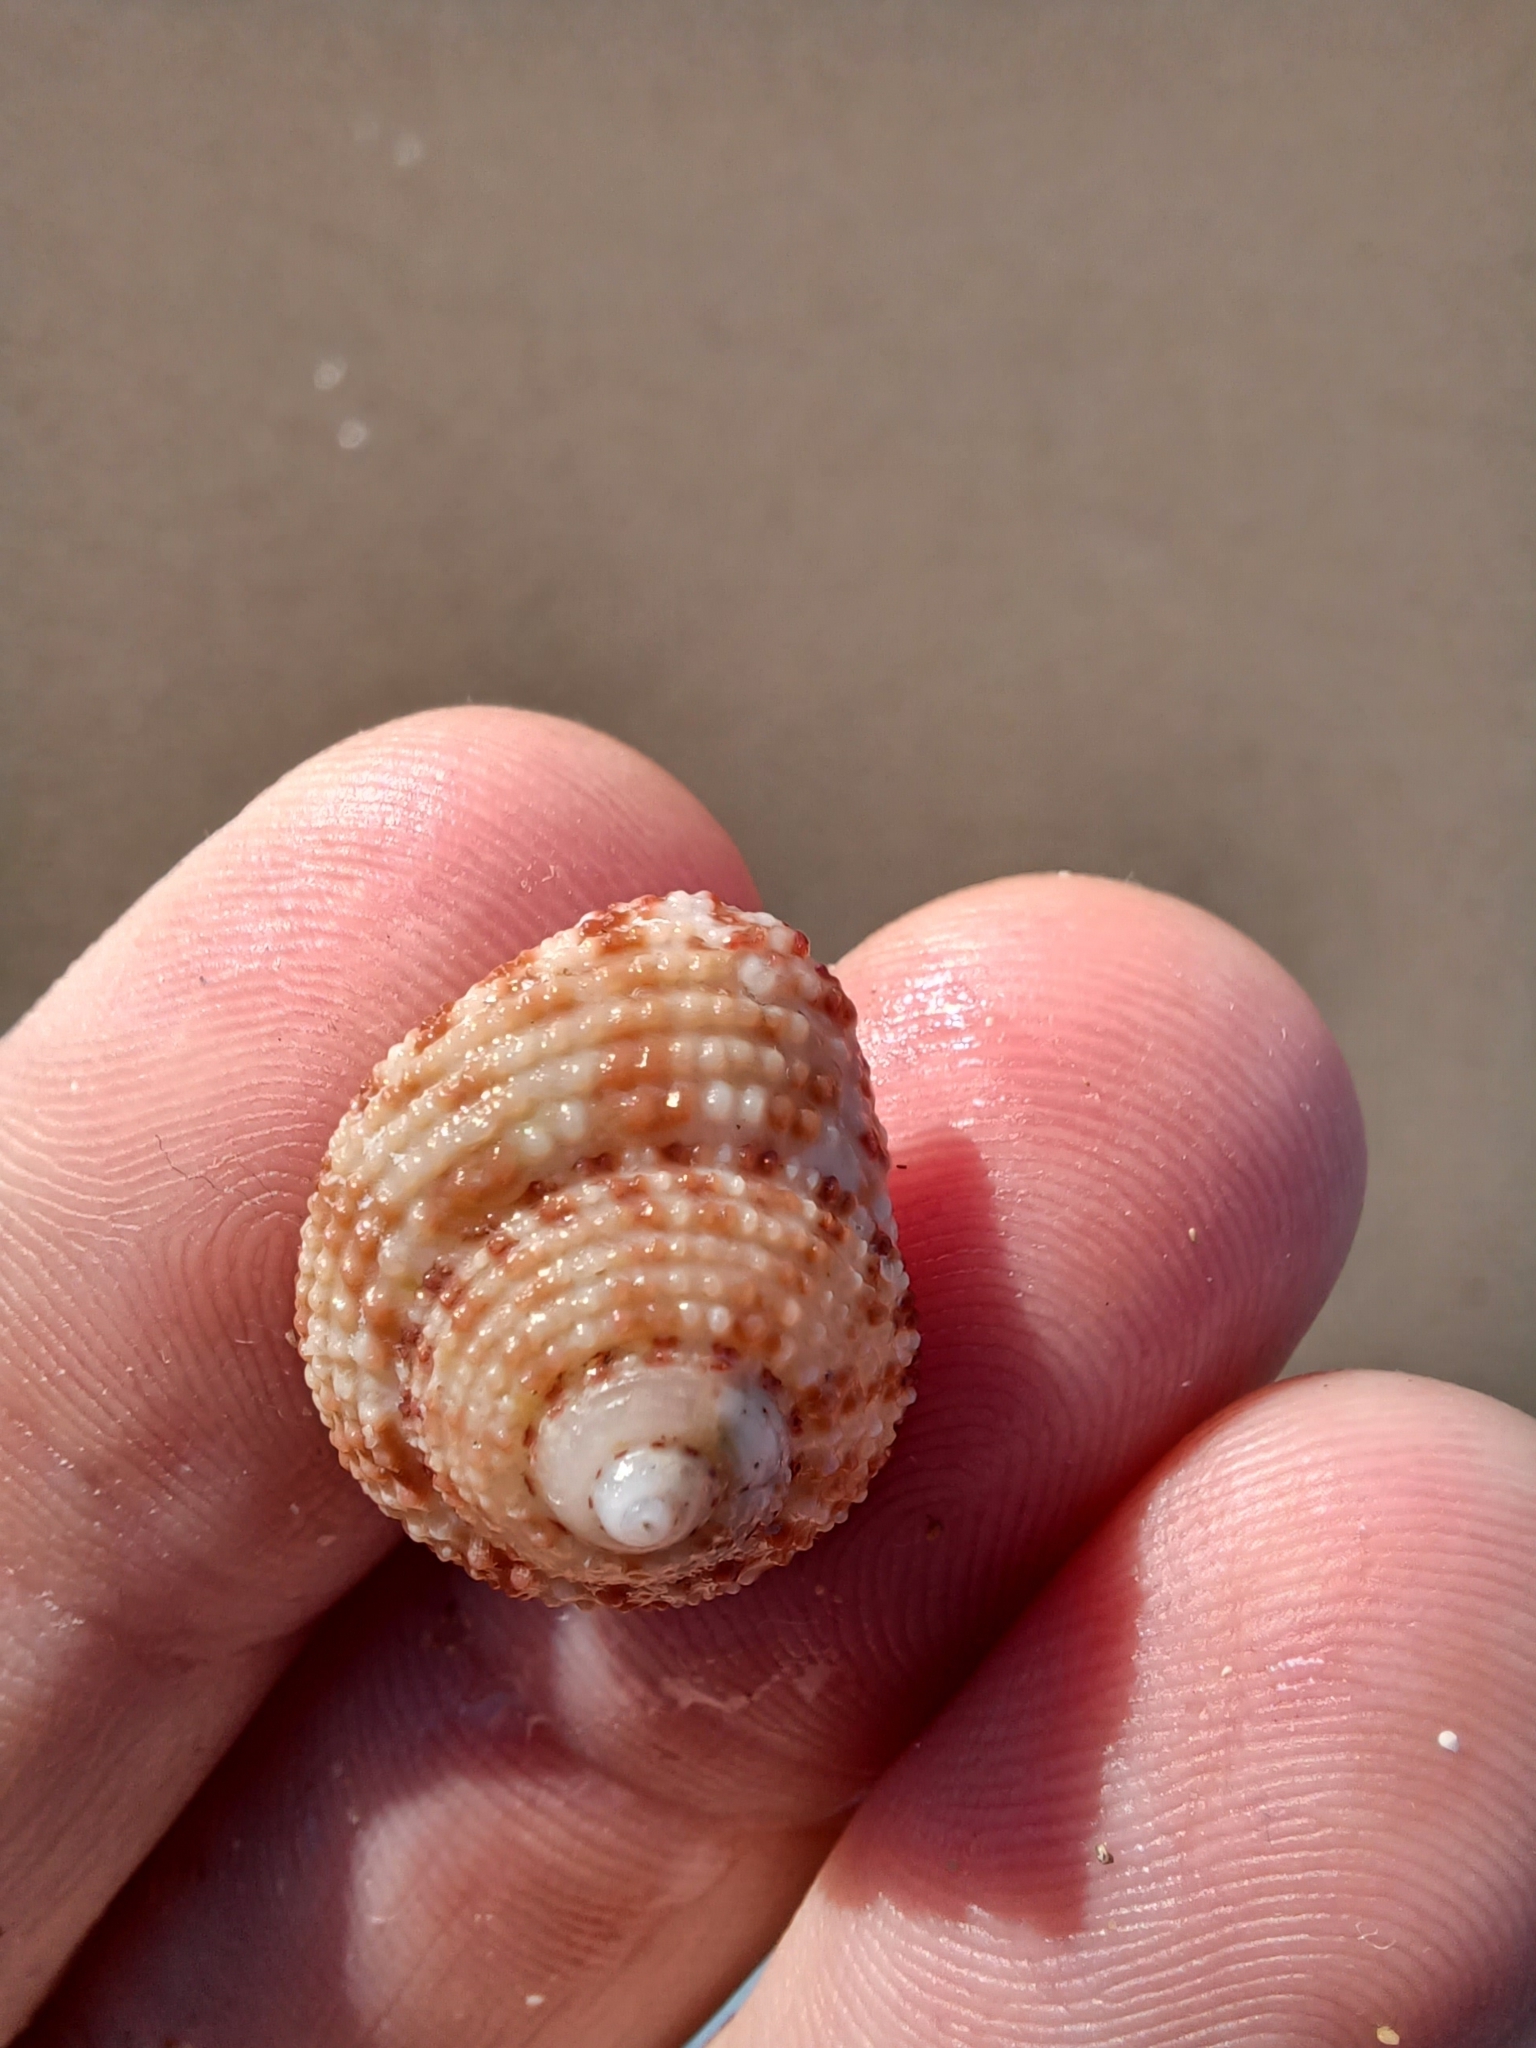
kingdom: Animalia
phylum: Mollusca
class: Gastropoda
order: Trochida
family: Trochidae
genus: Clanculus
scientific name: Clanculus flagellatus
